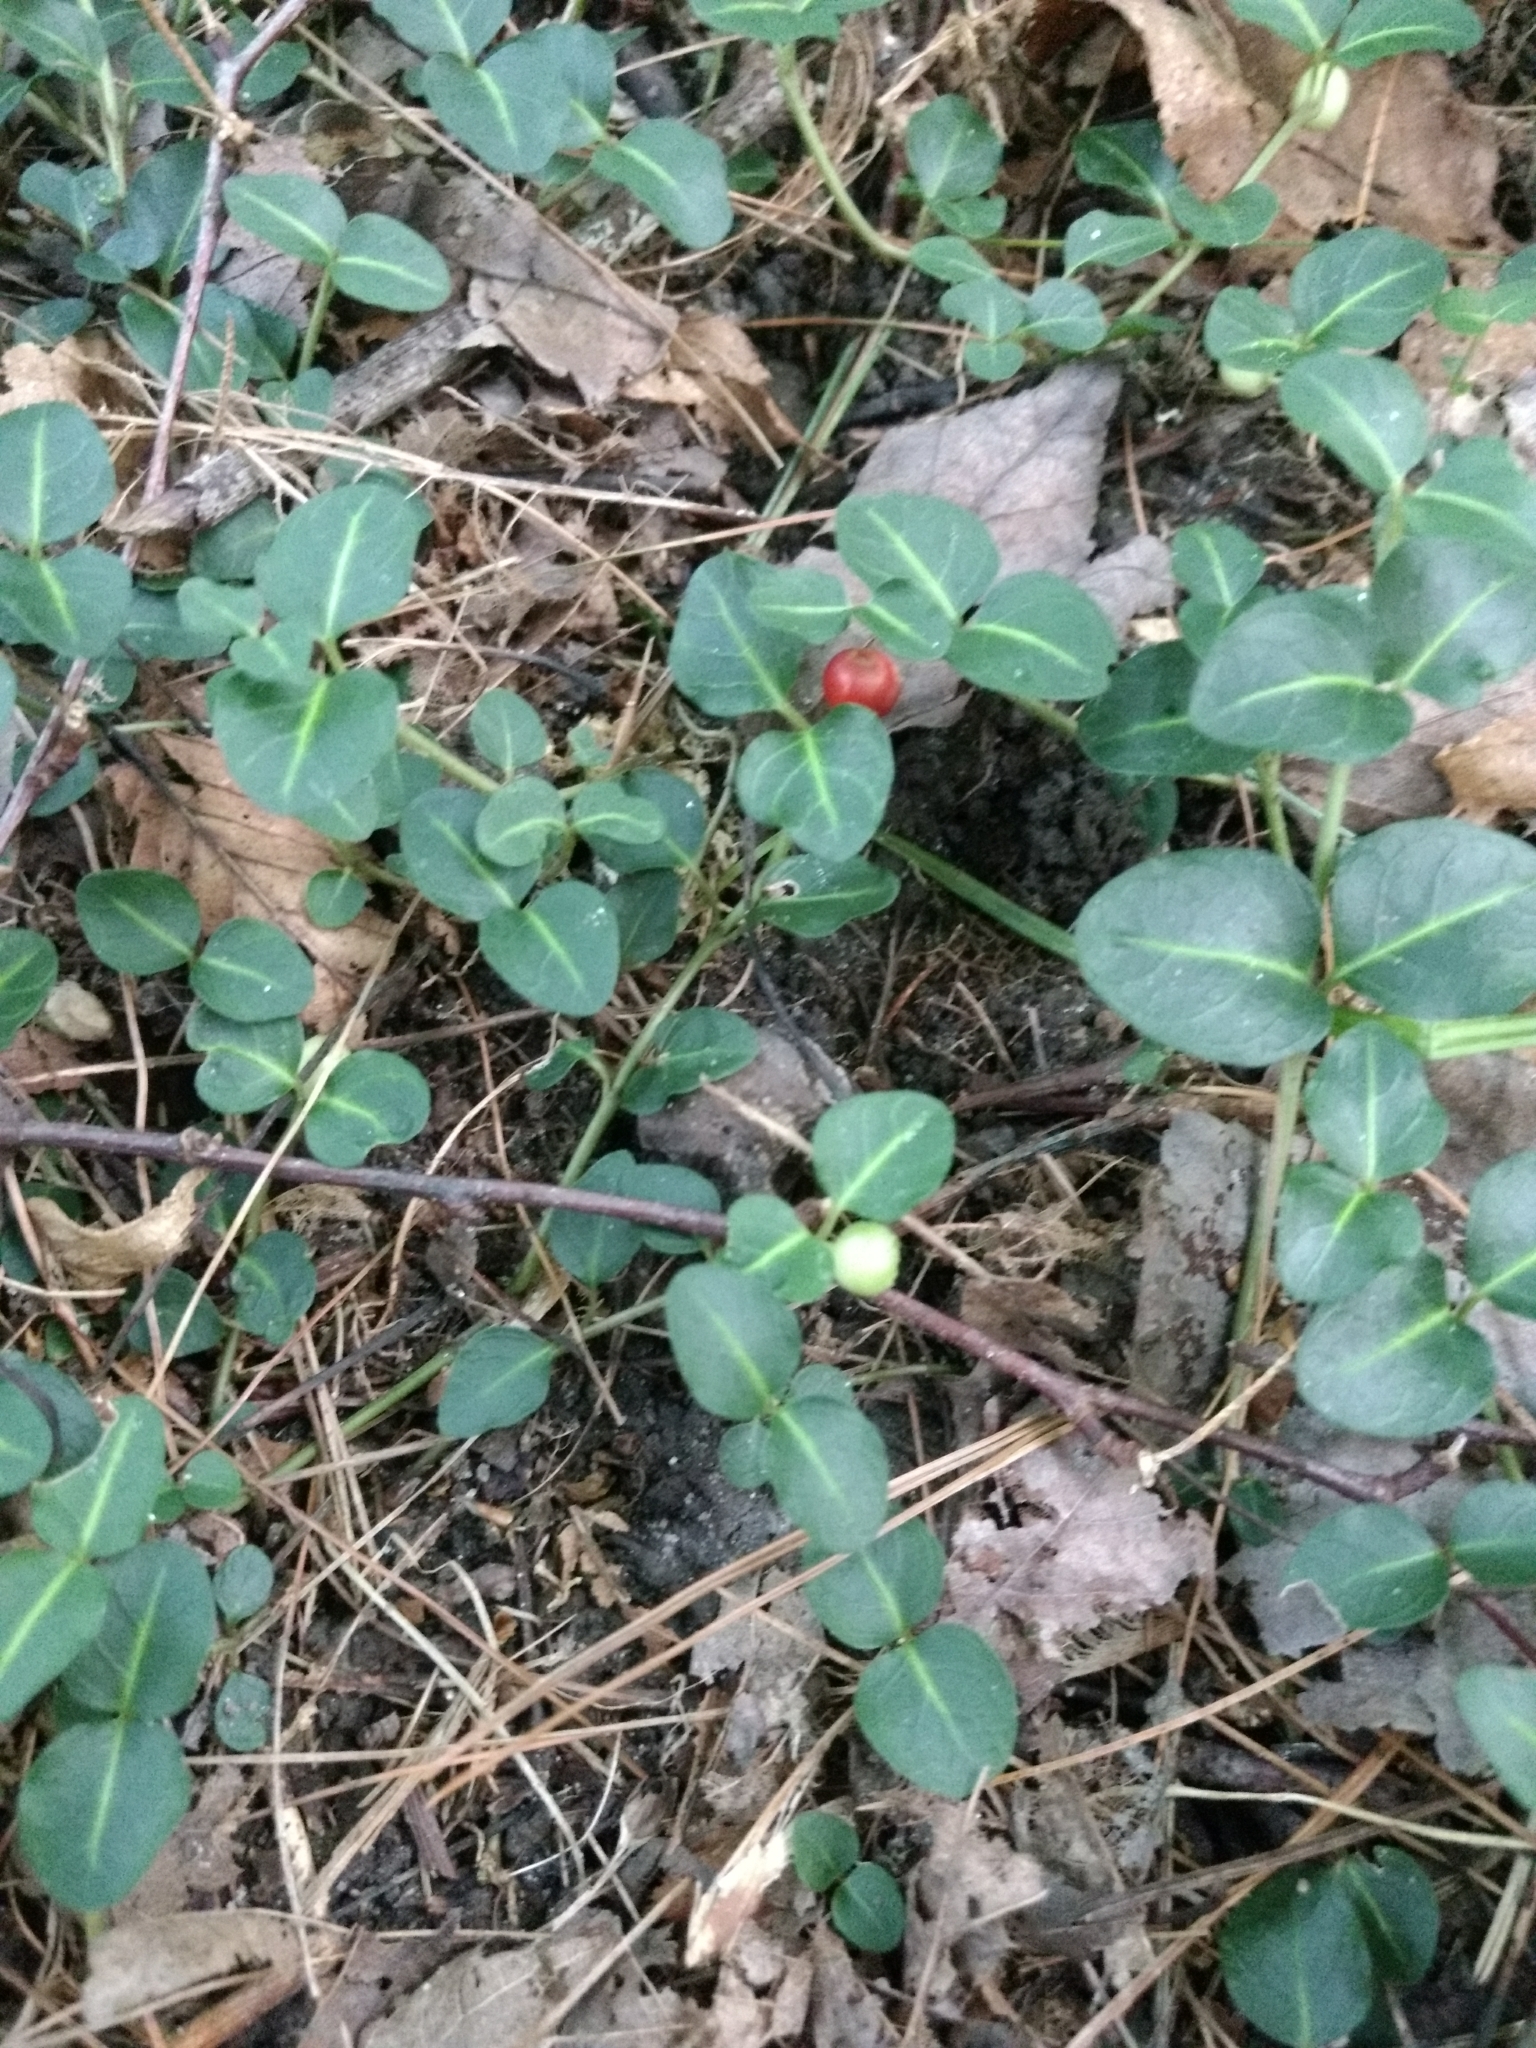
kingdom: Plantae
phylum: Tracheophyta
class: Magnoliopsida
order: Gentianales
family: Rubiaceae
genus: Mitchella
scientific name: Mitchella repens
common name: Partridge-berry
